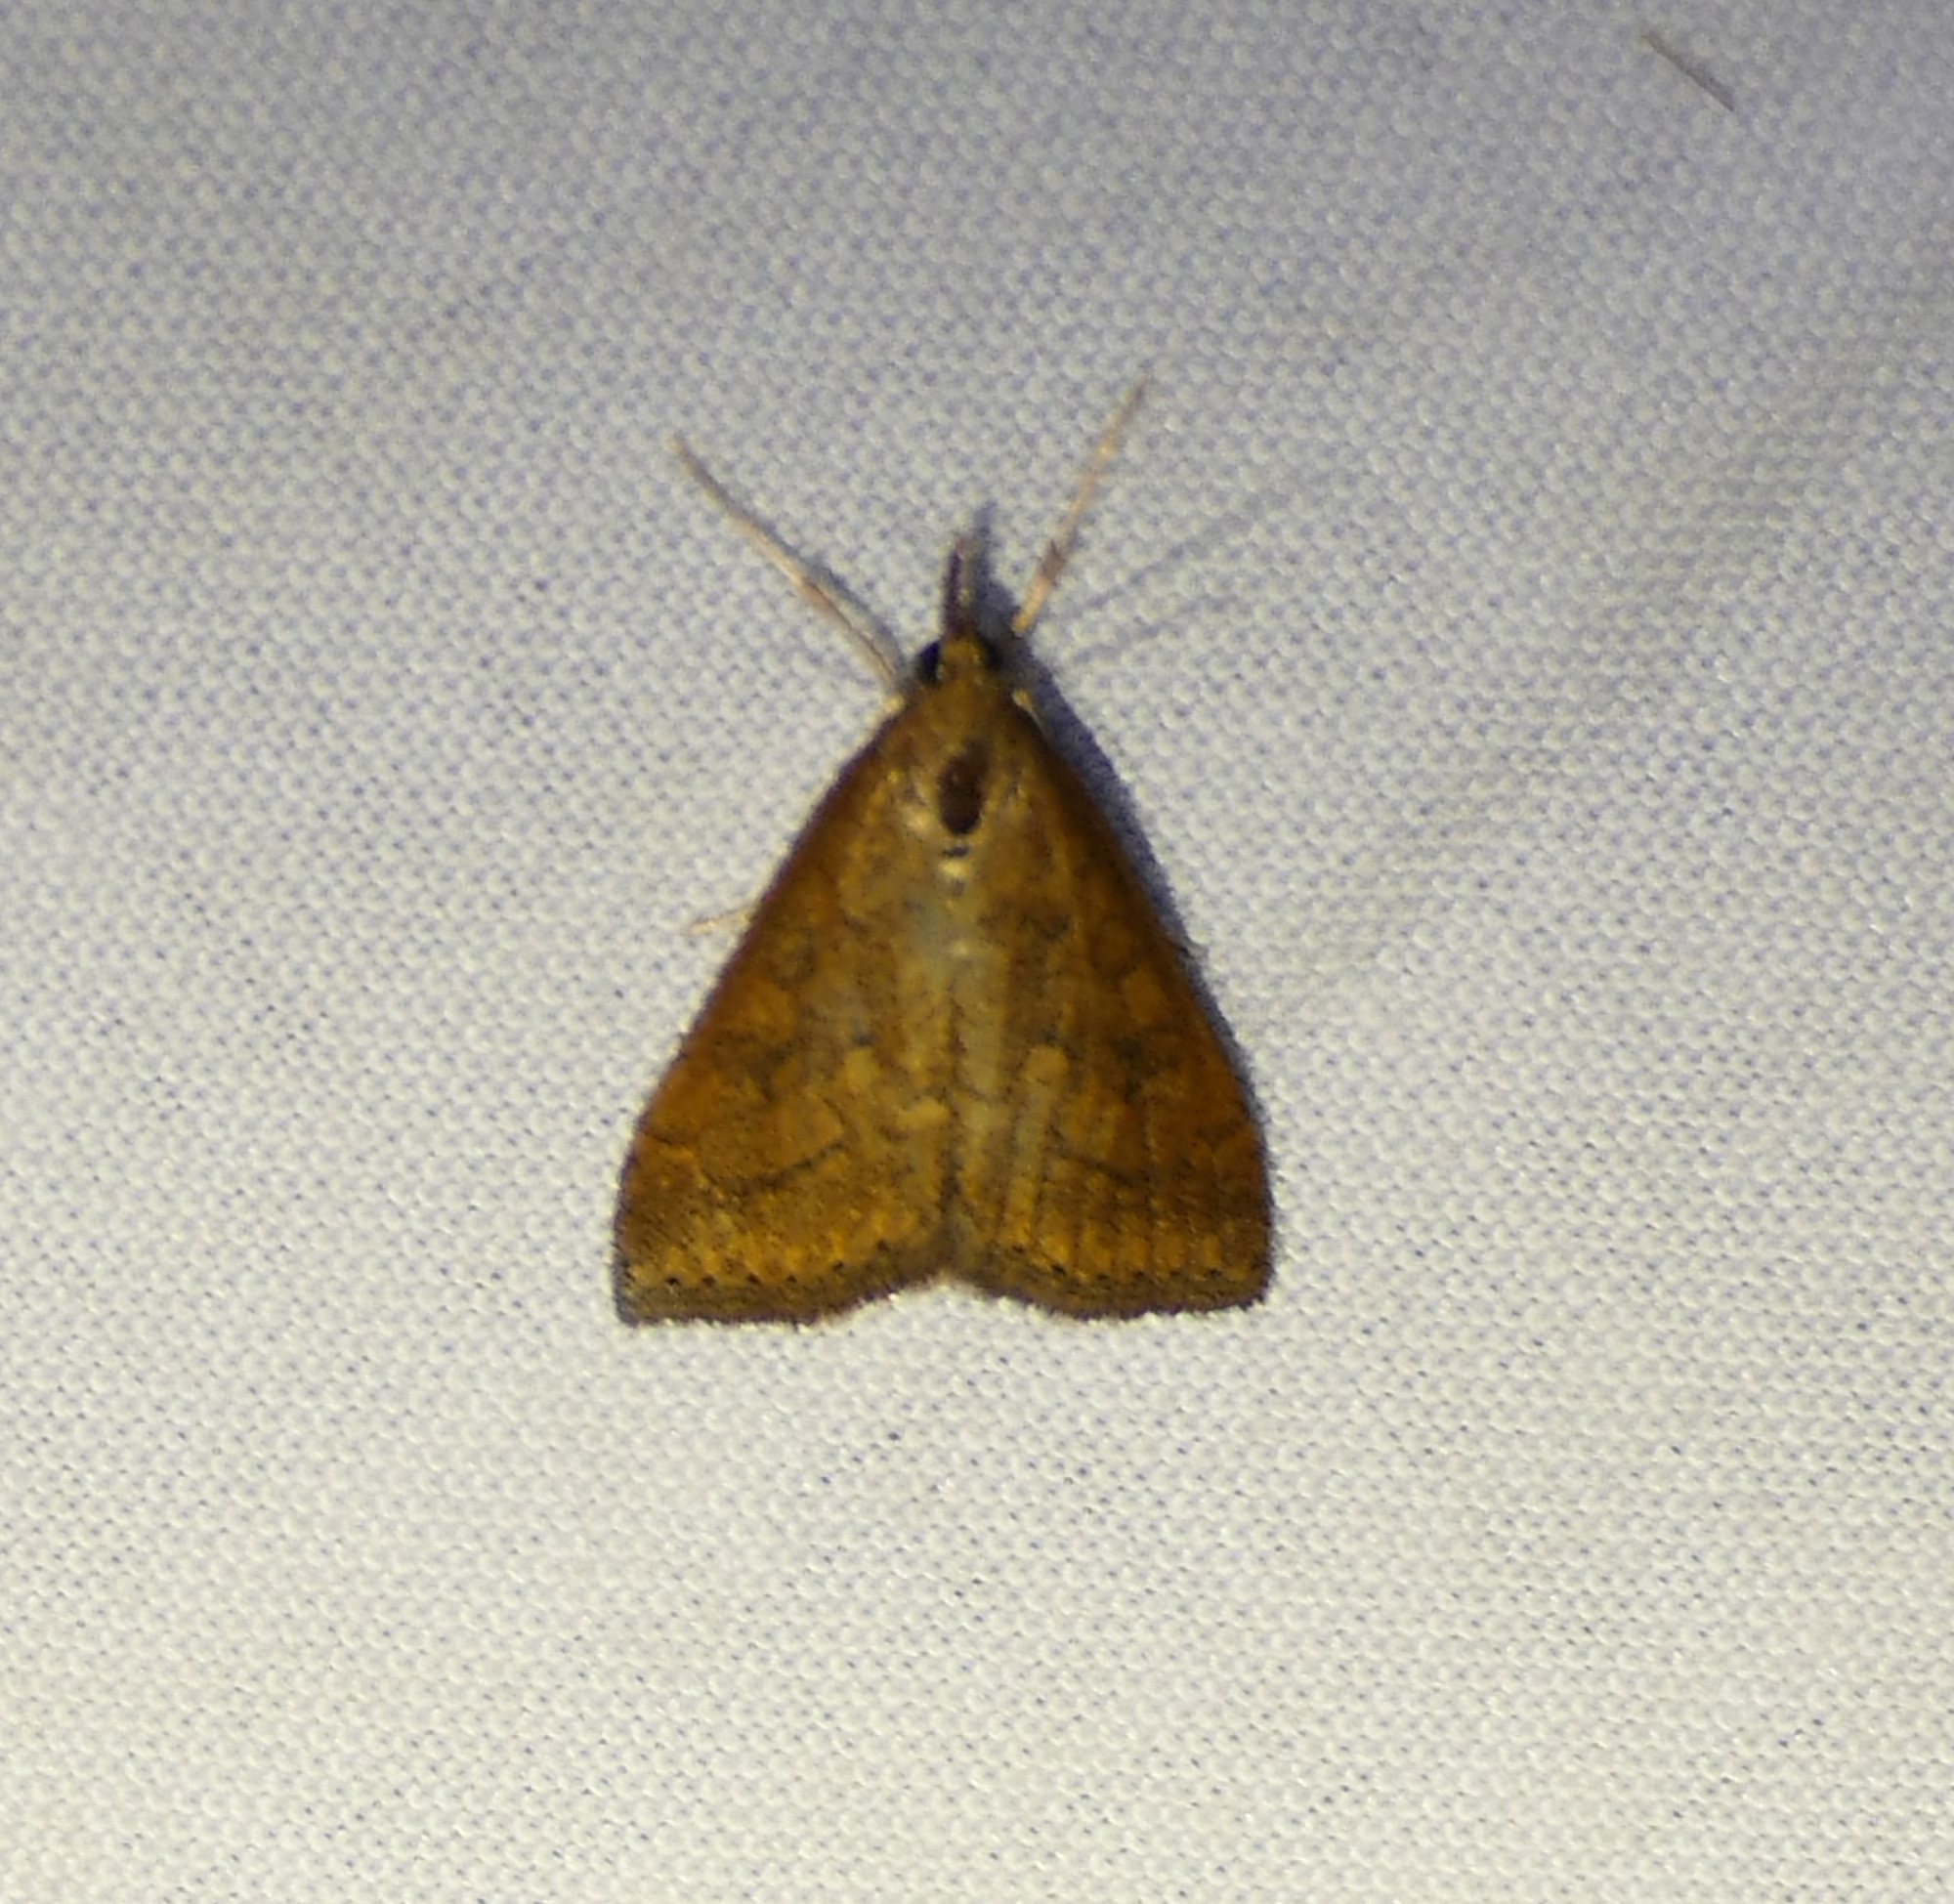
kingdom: Animalia
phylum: Arthropoda
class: Insecta
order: Lepidoptera
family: Crambidae
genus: Udea
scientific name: Udea rubigalis
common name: Celery leaftier moth
